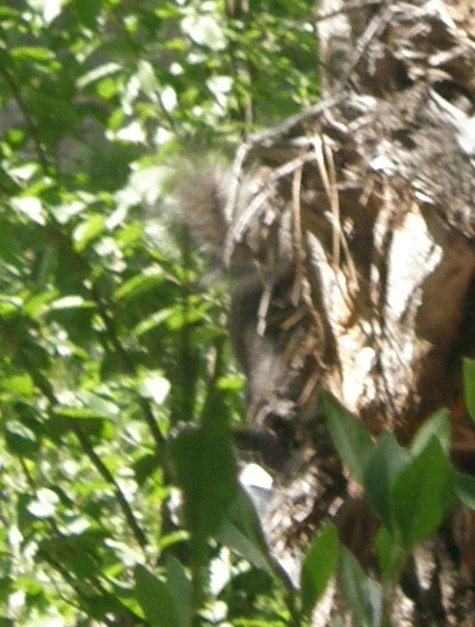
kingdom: Animalia
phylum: Chordata
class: Mammalia
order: Rodentia
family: Sciuridae
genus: Sciurus
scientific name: Sciurus aberti
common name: Abert's squirrel
